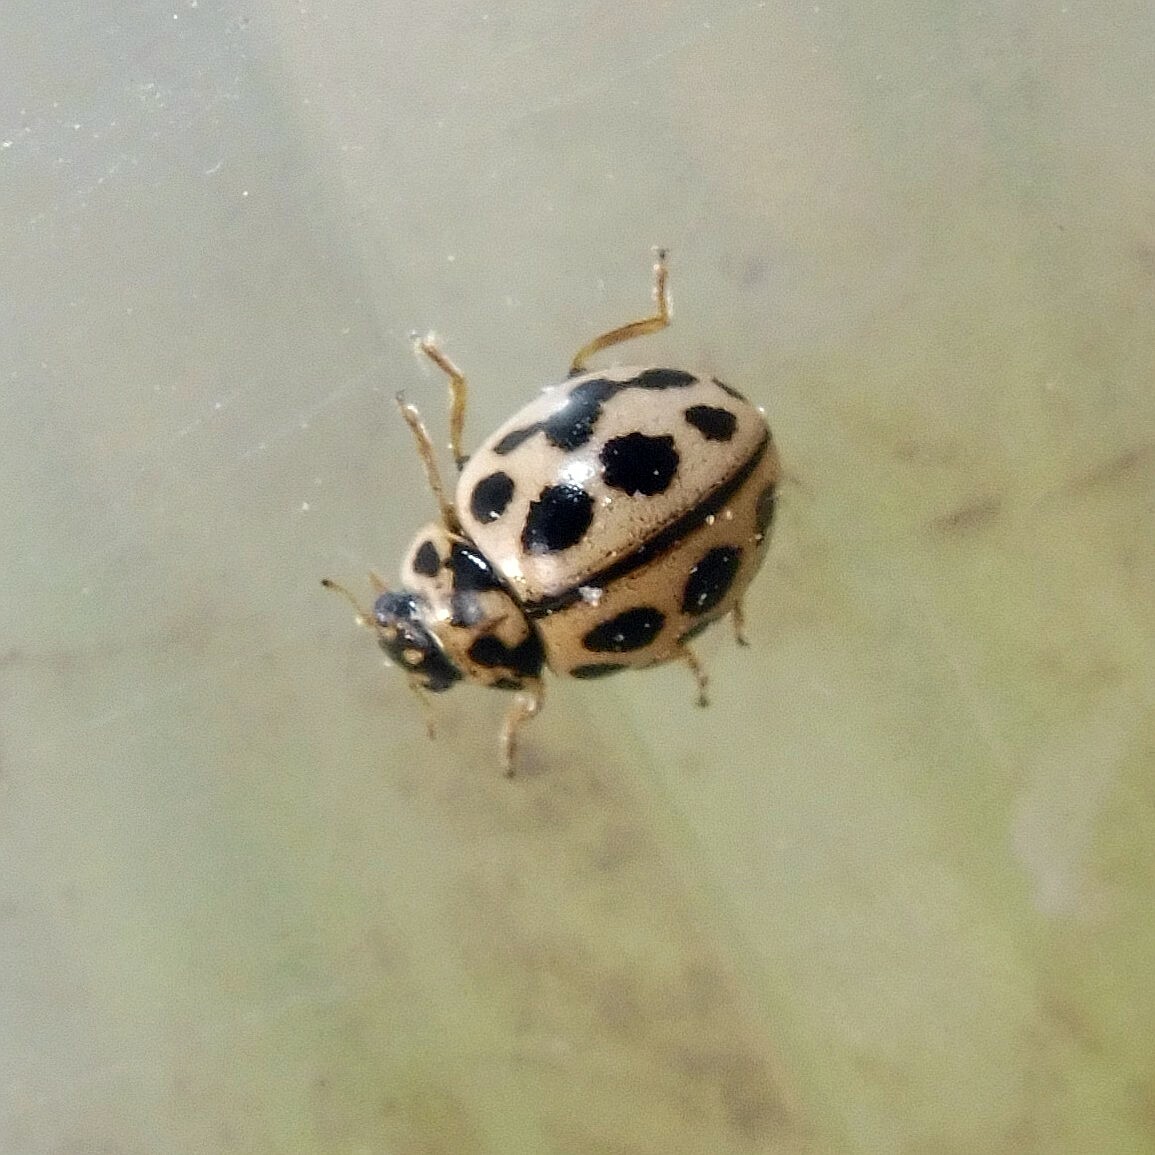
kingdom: Animalia
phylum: Arthropoda
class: Insecta
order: Coleoptera
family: Coccinellidae
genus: Tytthaspis
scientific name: Tytthaspis sedecimpunctata
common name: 16-spot ladybird
